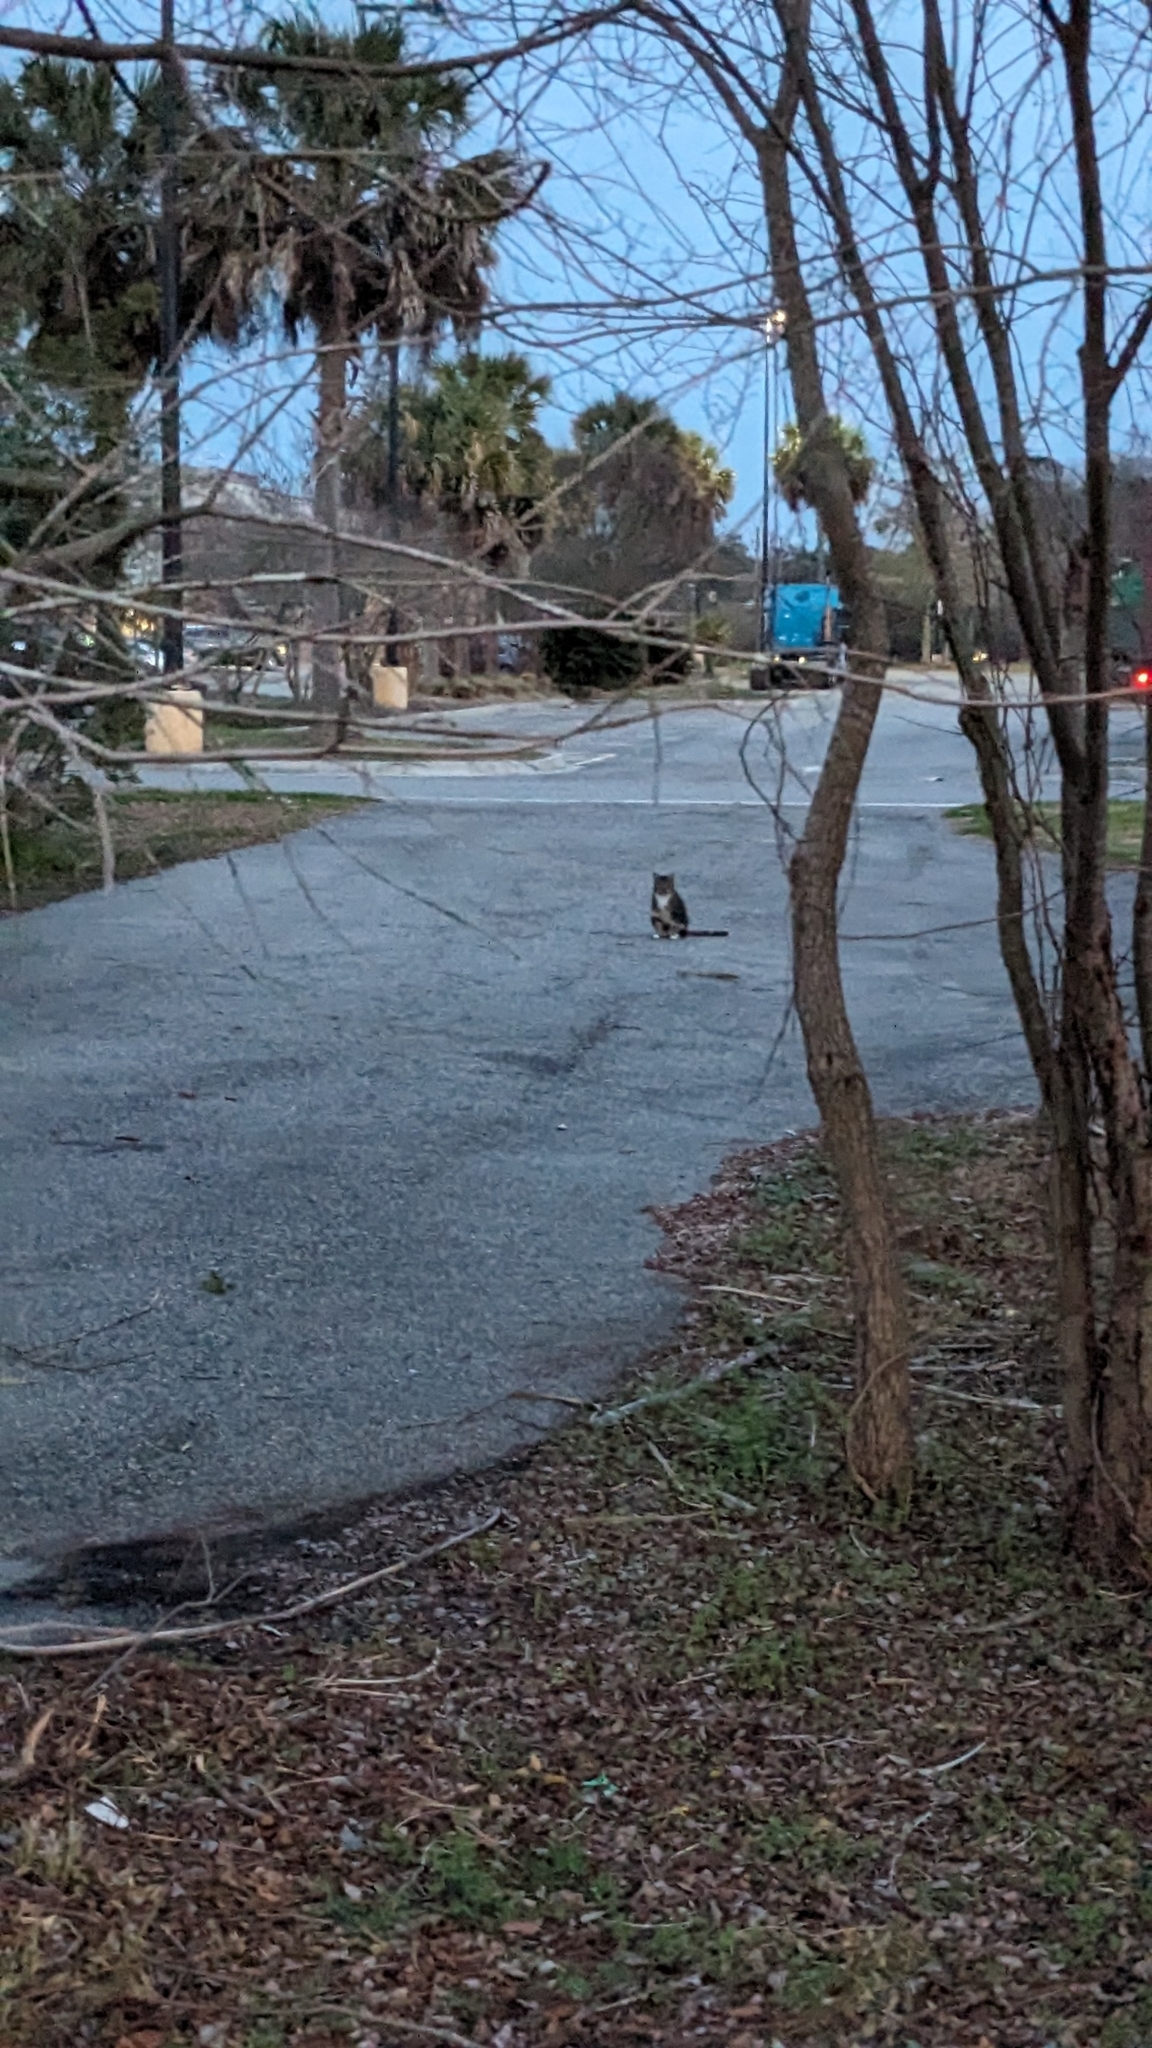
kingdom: Animalia
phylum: Chordata
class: Mammalia
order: Carnivora
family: Felidae
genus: Felis
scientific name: Felis catus
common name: Domestic cat
